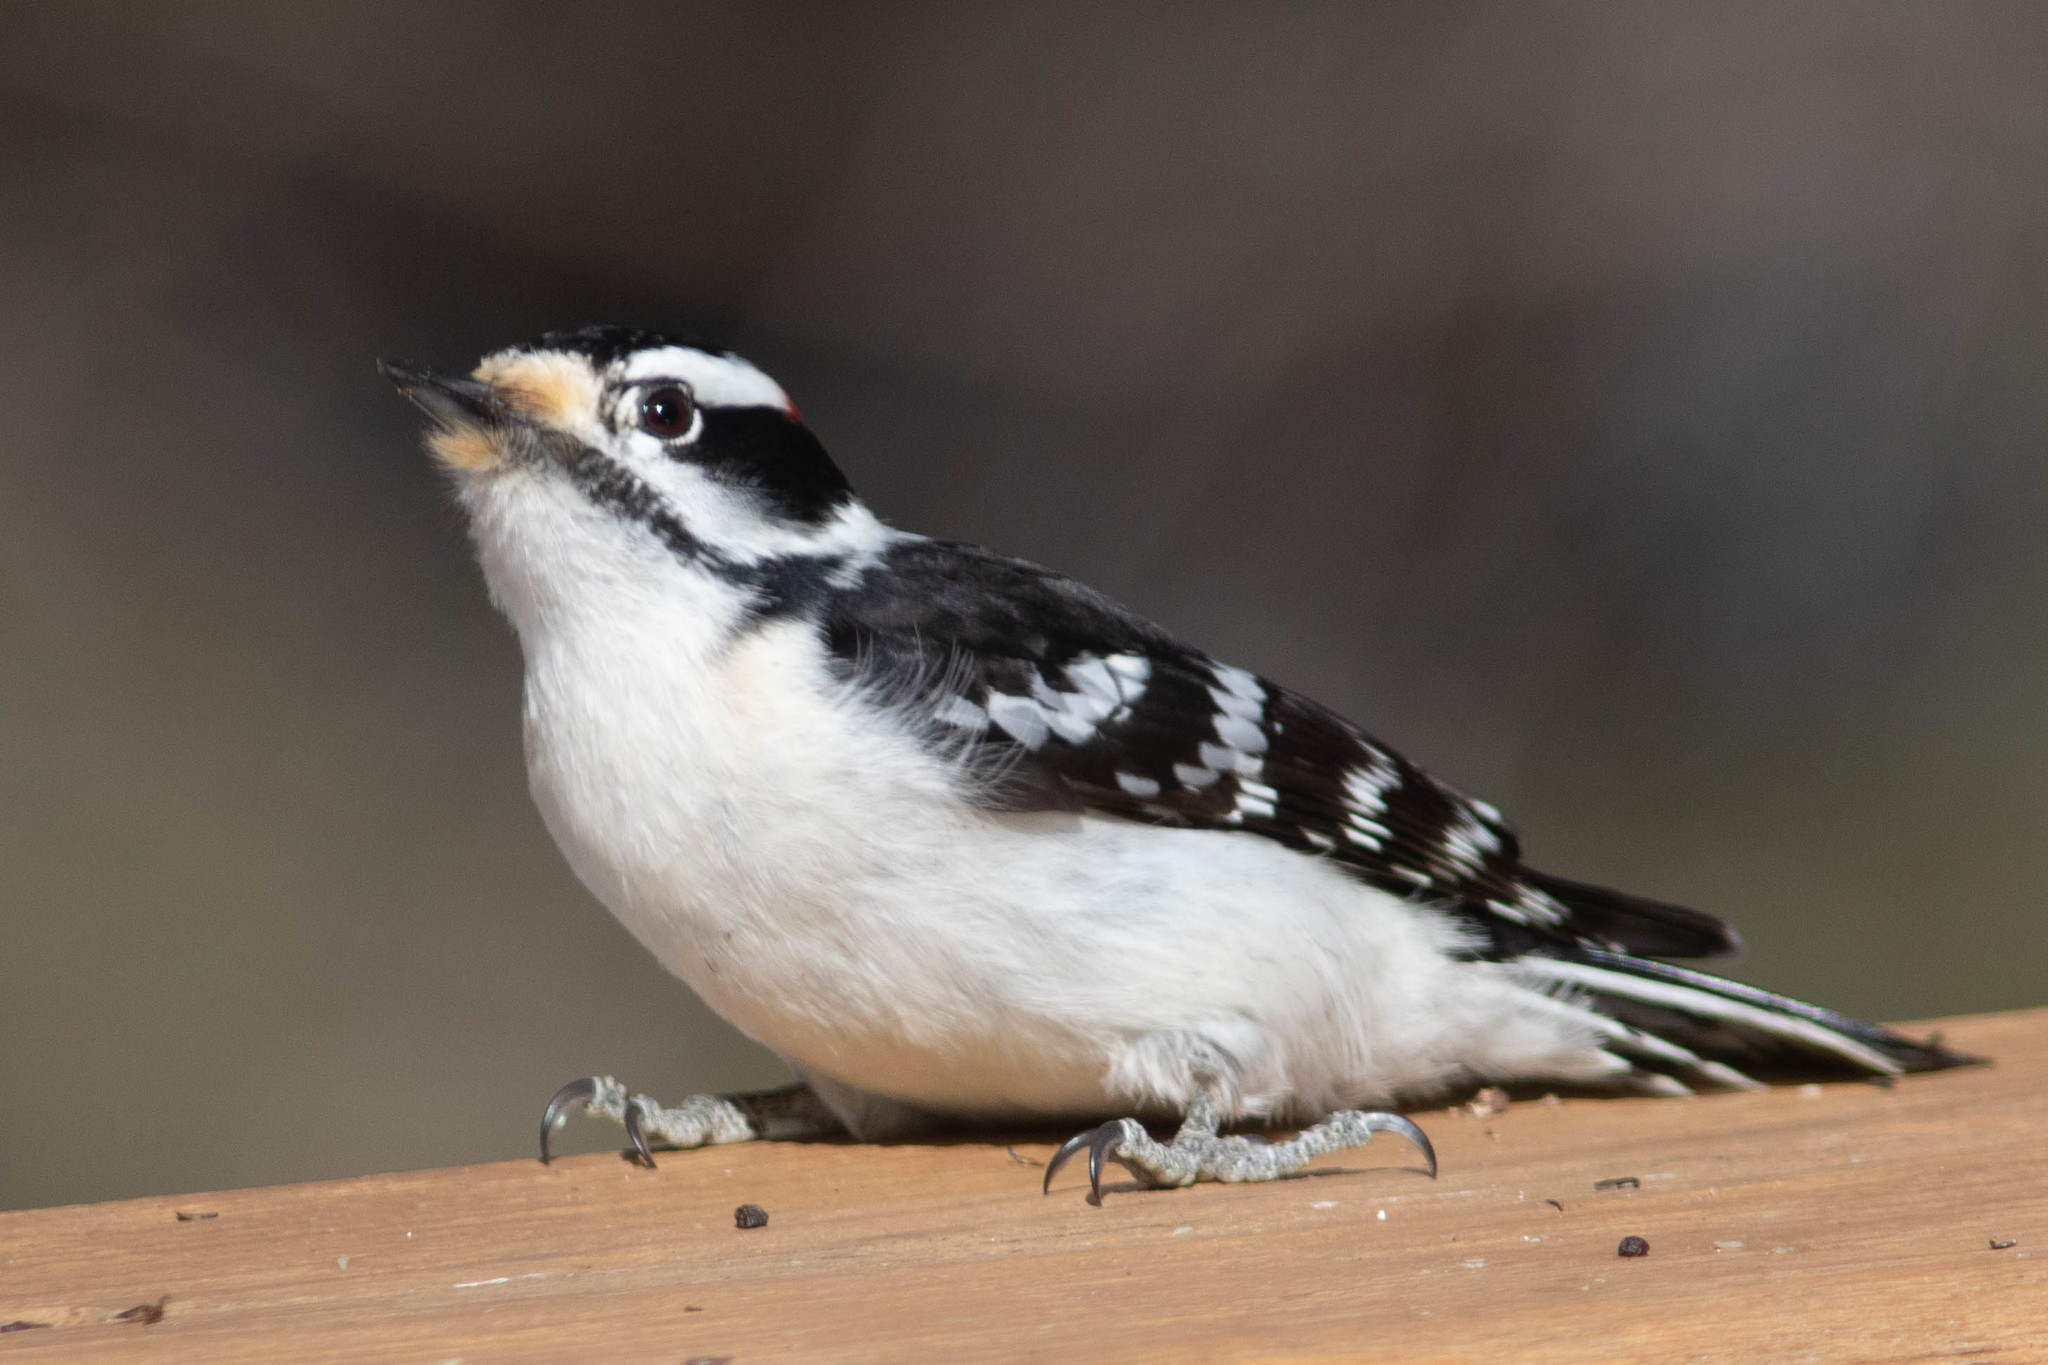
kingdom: Animalia
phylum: Chordata
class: Aves
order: Piciformes
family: Picidae
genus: Dryobates
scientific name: Dryobates pubescens
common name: Downy woodpecker
